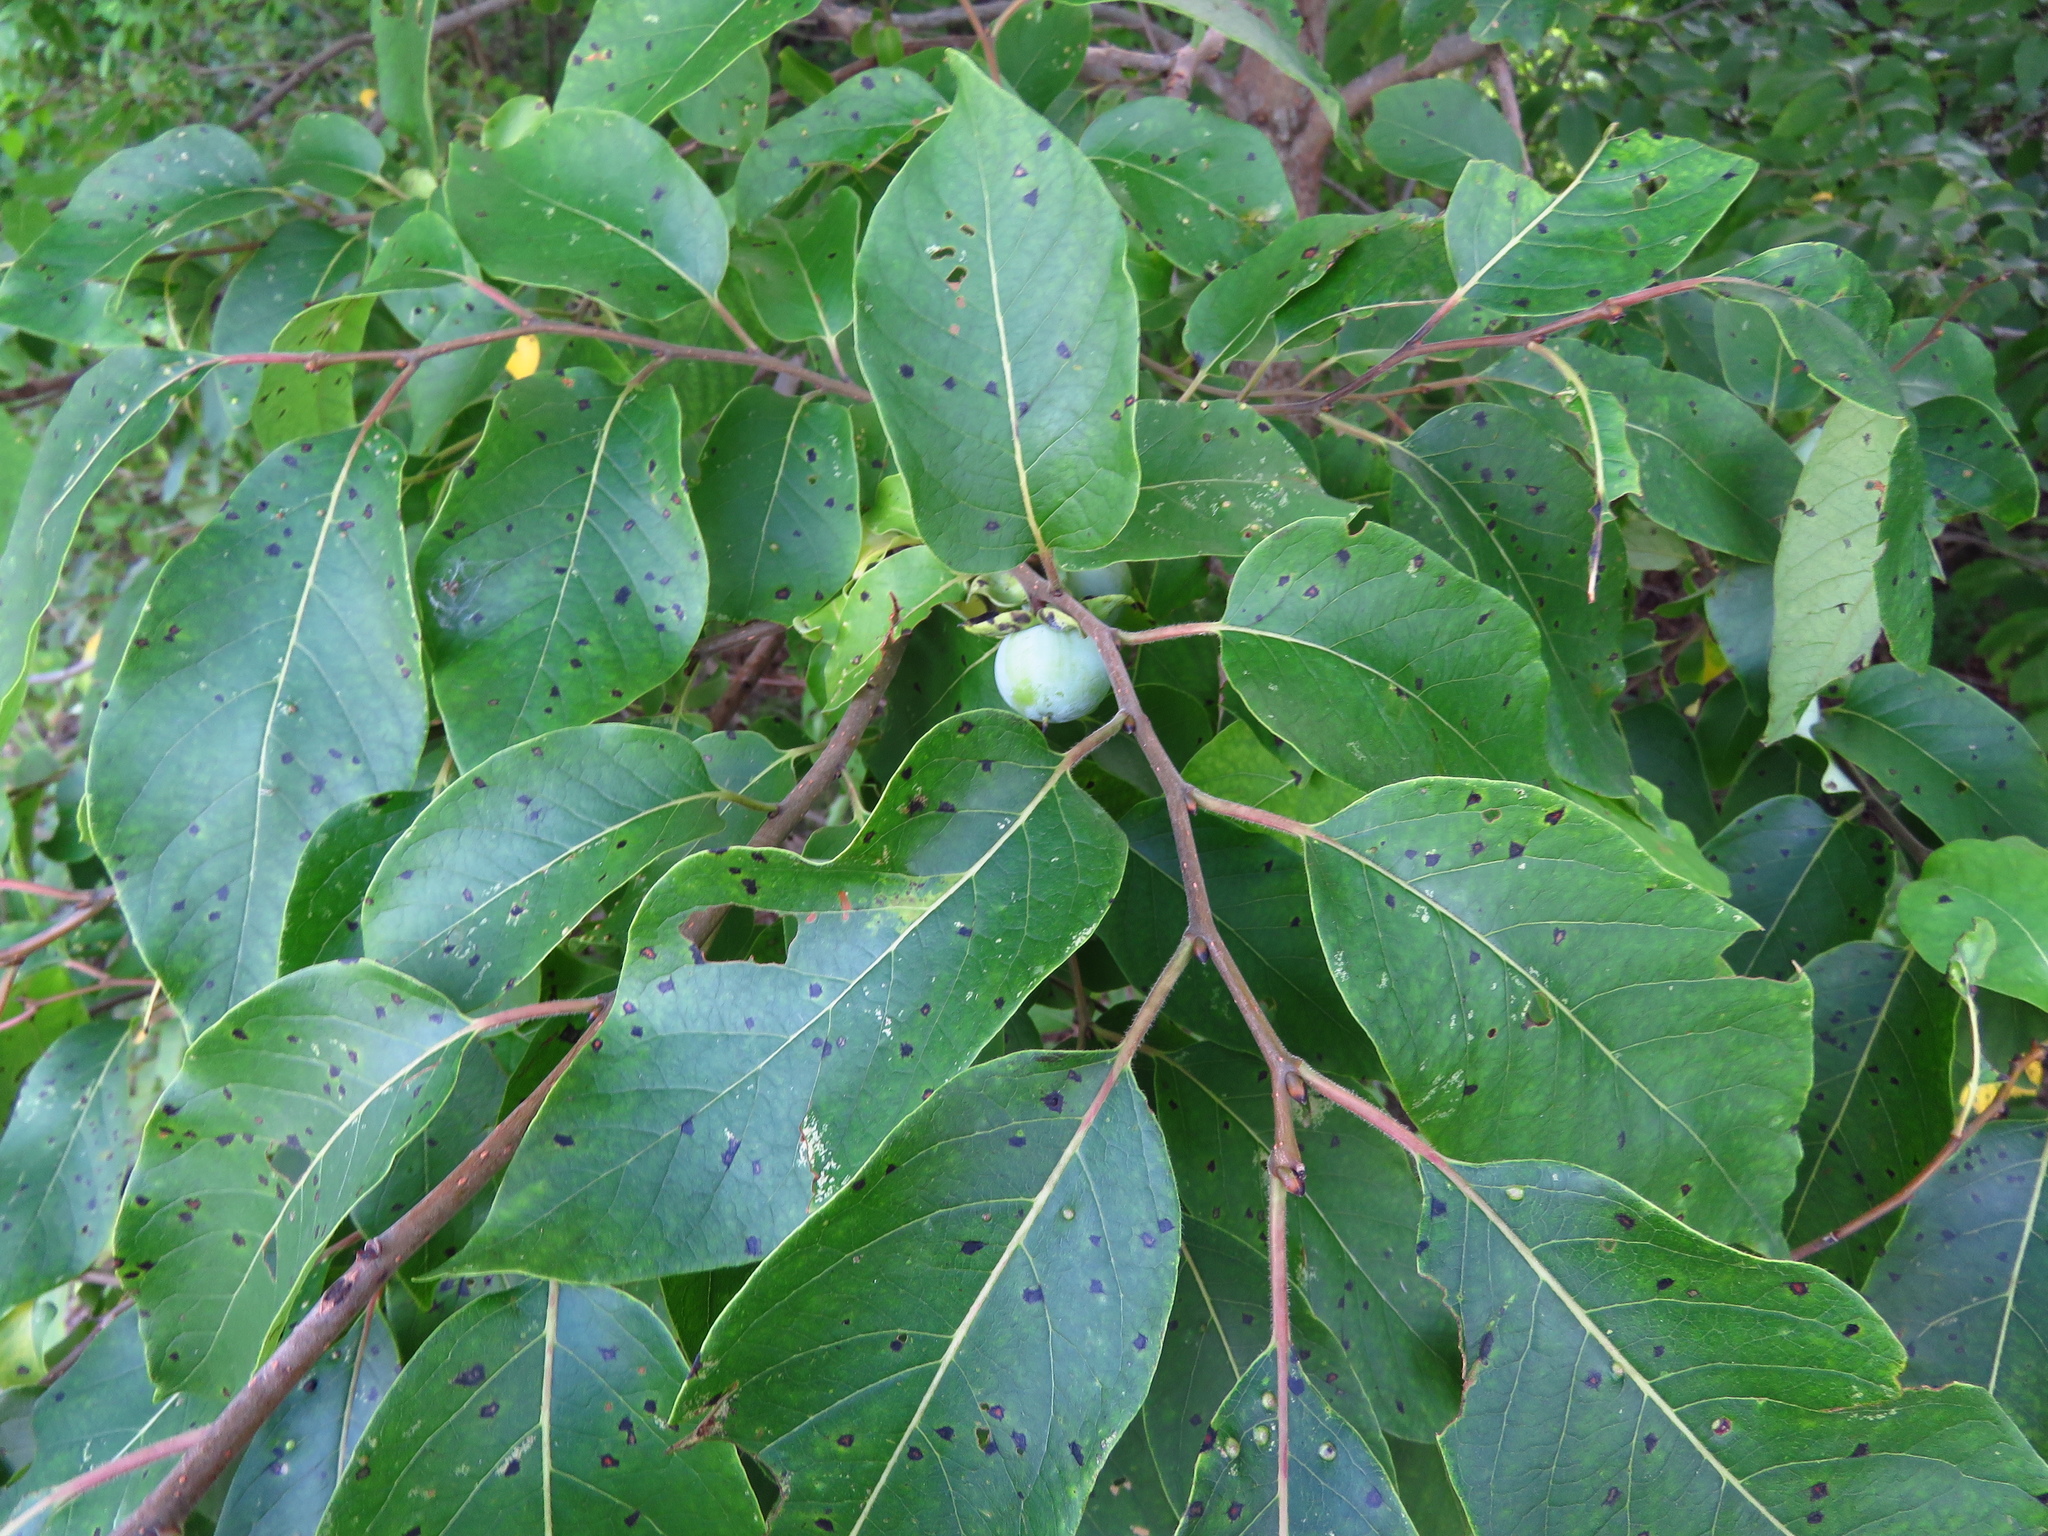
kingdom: Plantae
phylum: Tracheophyta
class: Magnoliopsida
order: Ericales
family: Ebenaceae
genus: Diospyros
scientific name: Diospyros virginiana
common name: Persimmon
